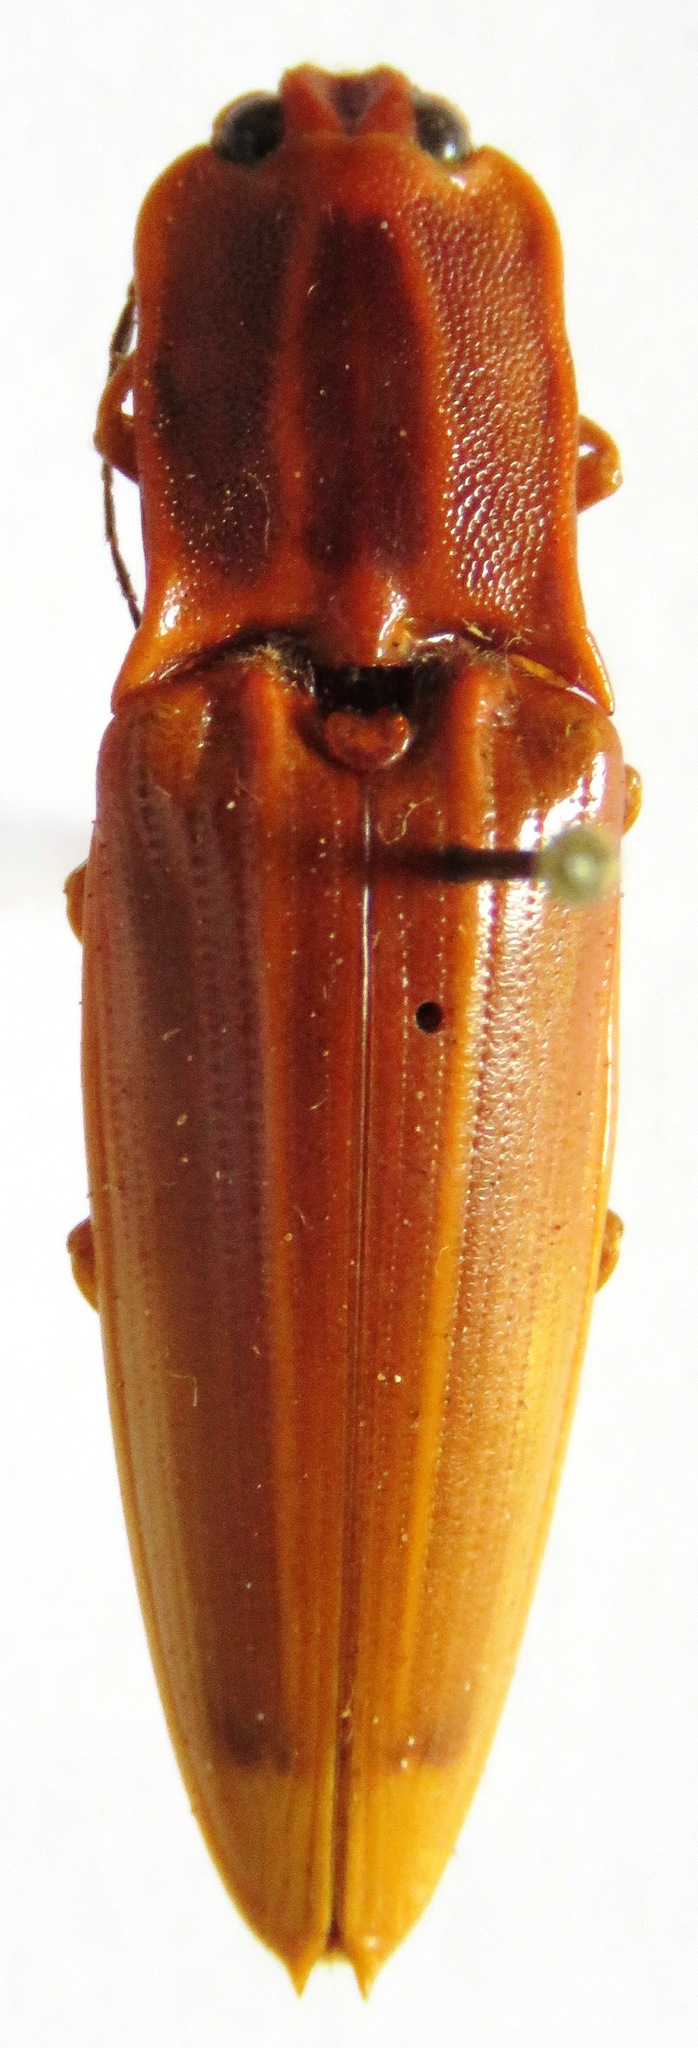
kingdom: Animalia
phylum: Arthropoda
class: Insecta
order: Coleoptera
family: Elateridae
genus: Semiotus
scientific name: Semiotus ligneus
